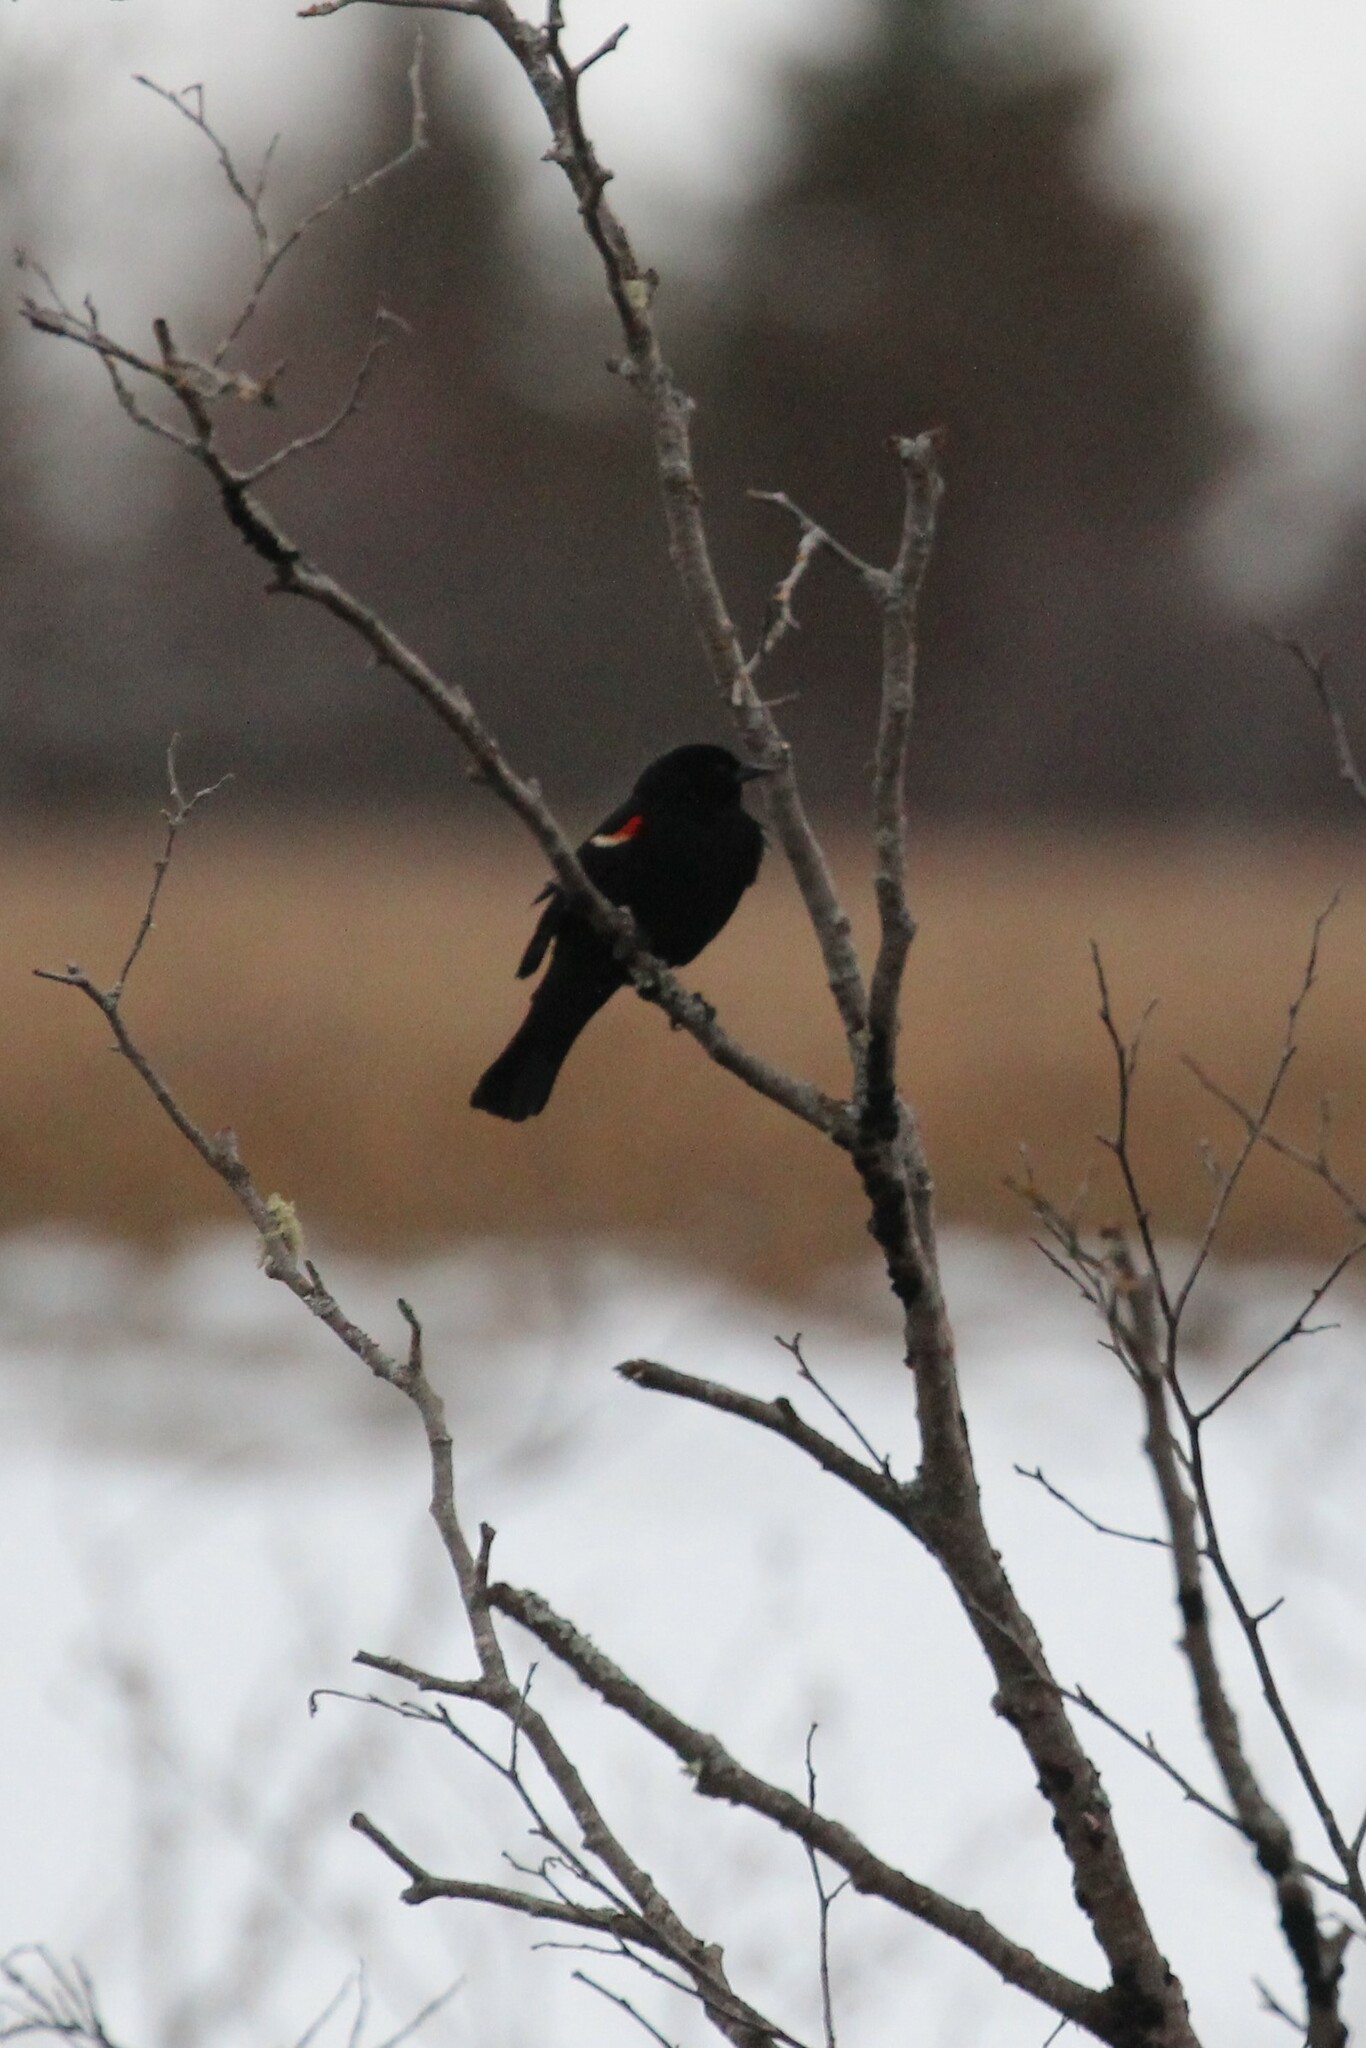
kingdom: Animalia
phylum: Chordata
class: Aves
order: Passeriformes
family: Icteridae
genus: Agelaius
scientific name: Agelaius phoeniceus
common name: Red-winged blackbird
